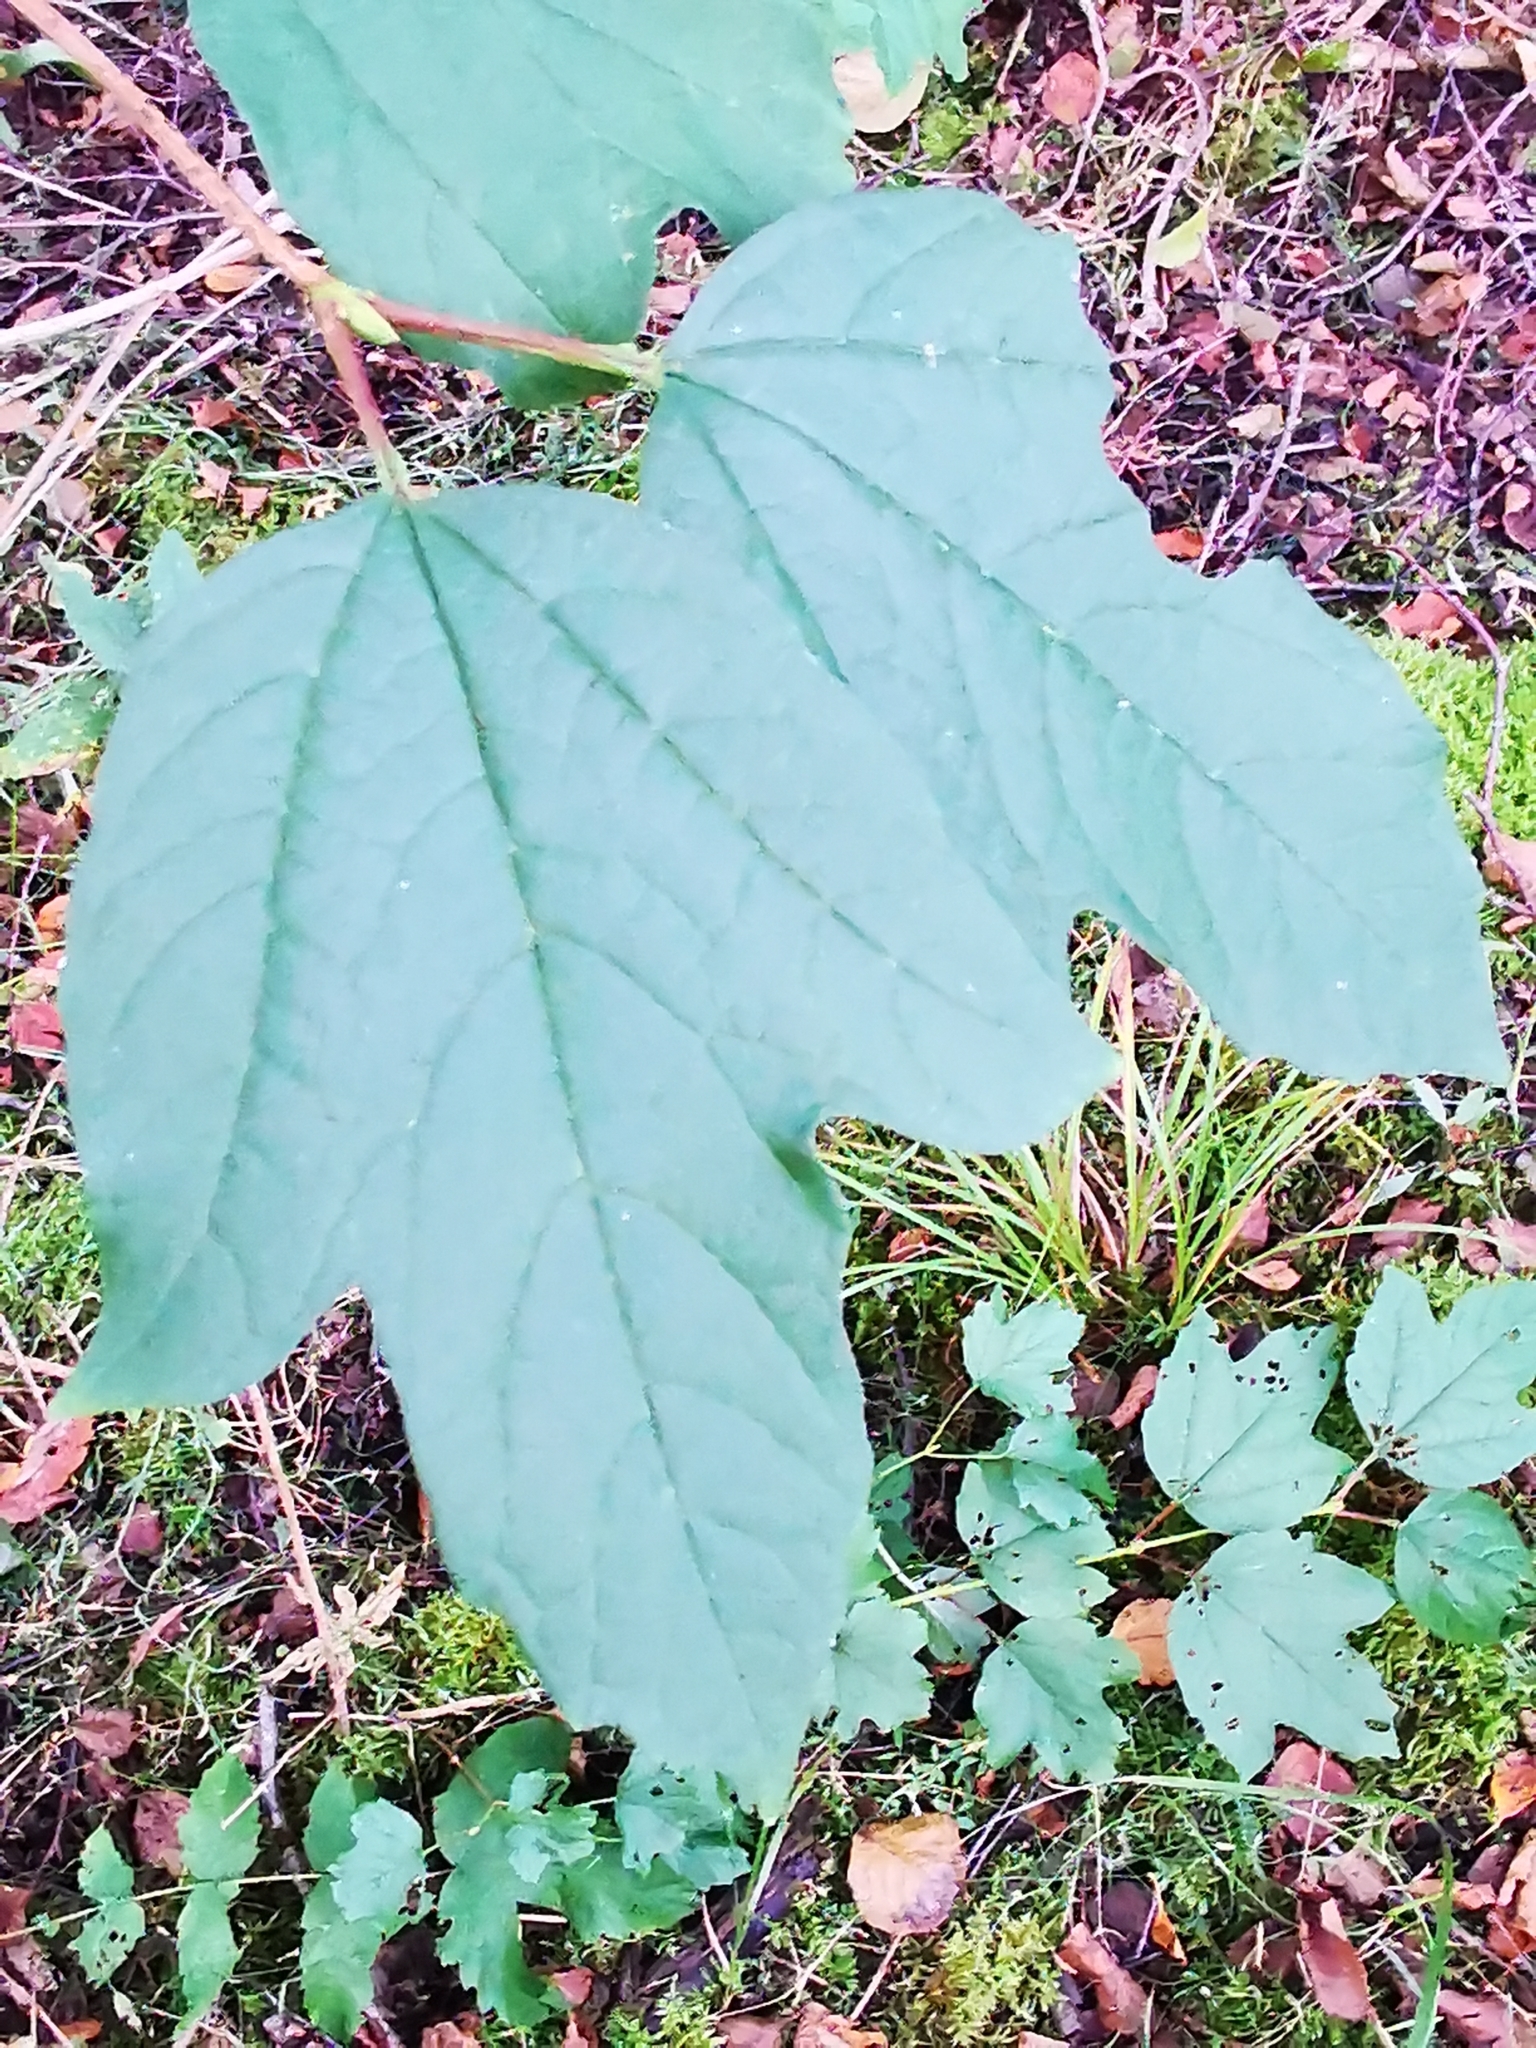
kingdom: Plantae
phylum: Tracheophyta
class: Magnoliopsida
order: Dipsacales
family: Viburnaceae
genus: Viburnum
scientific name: Viburnum opulus
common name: Guelder-rose
